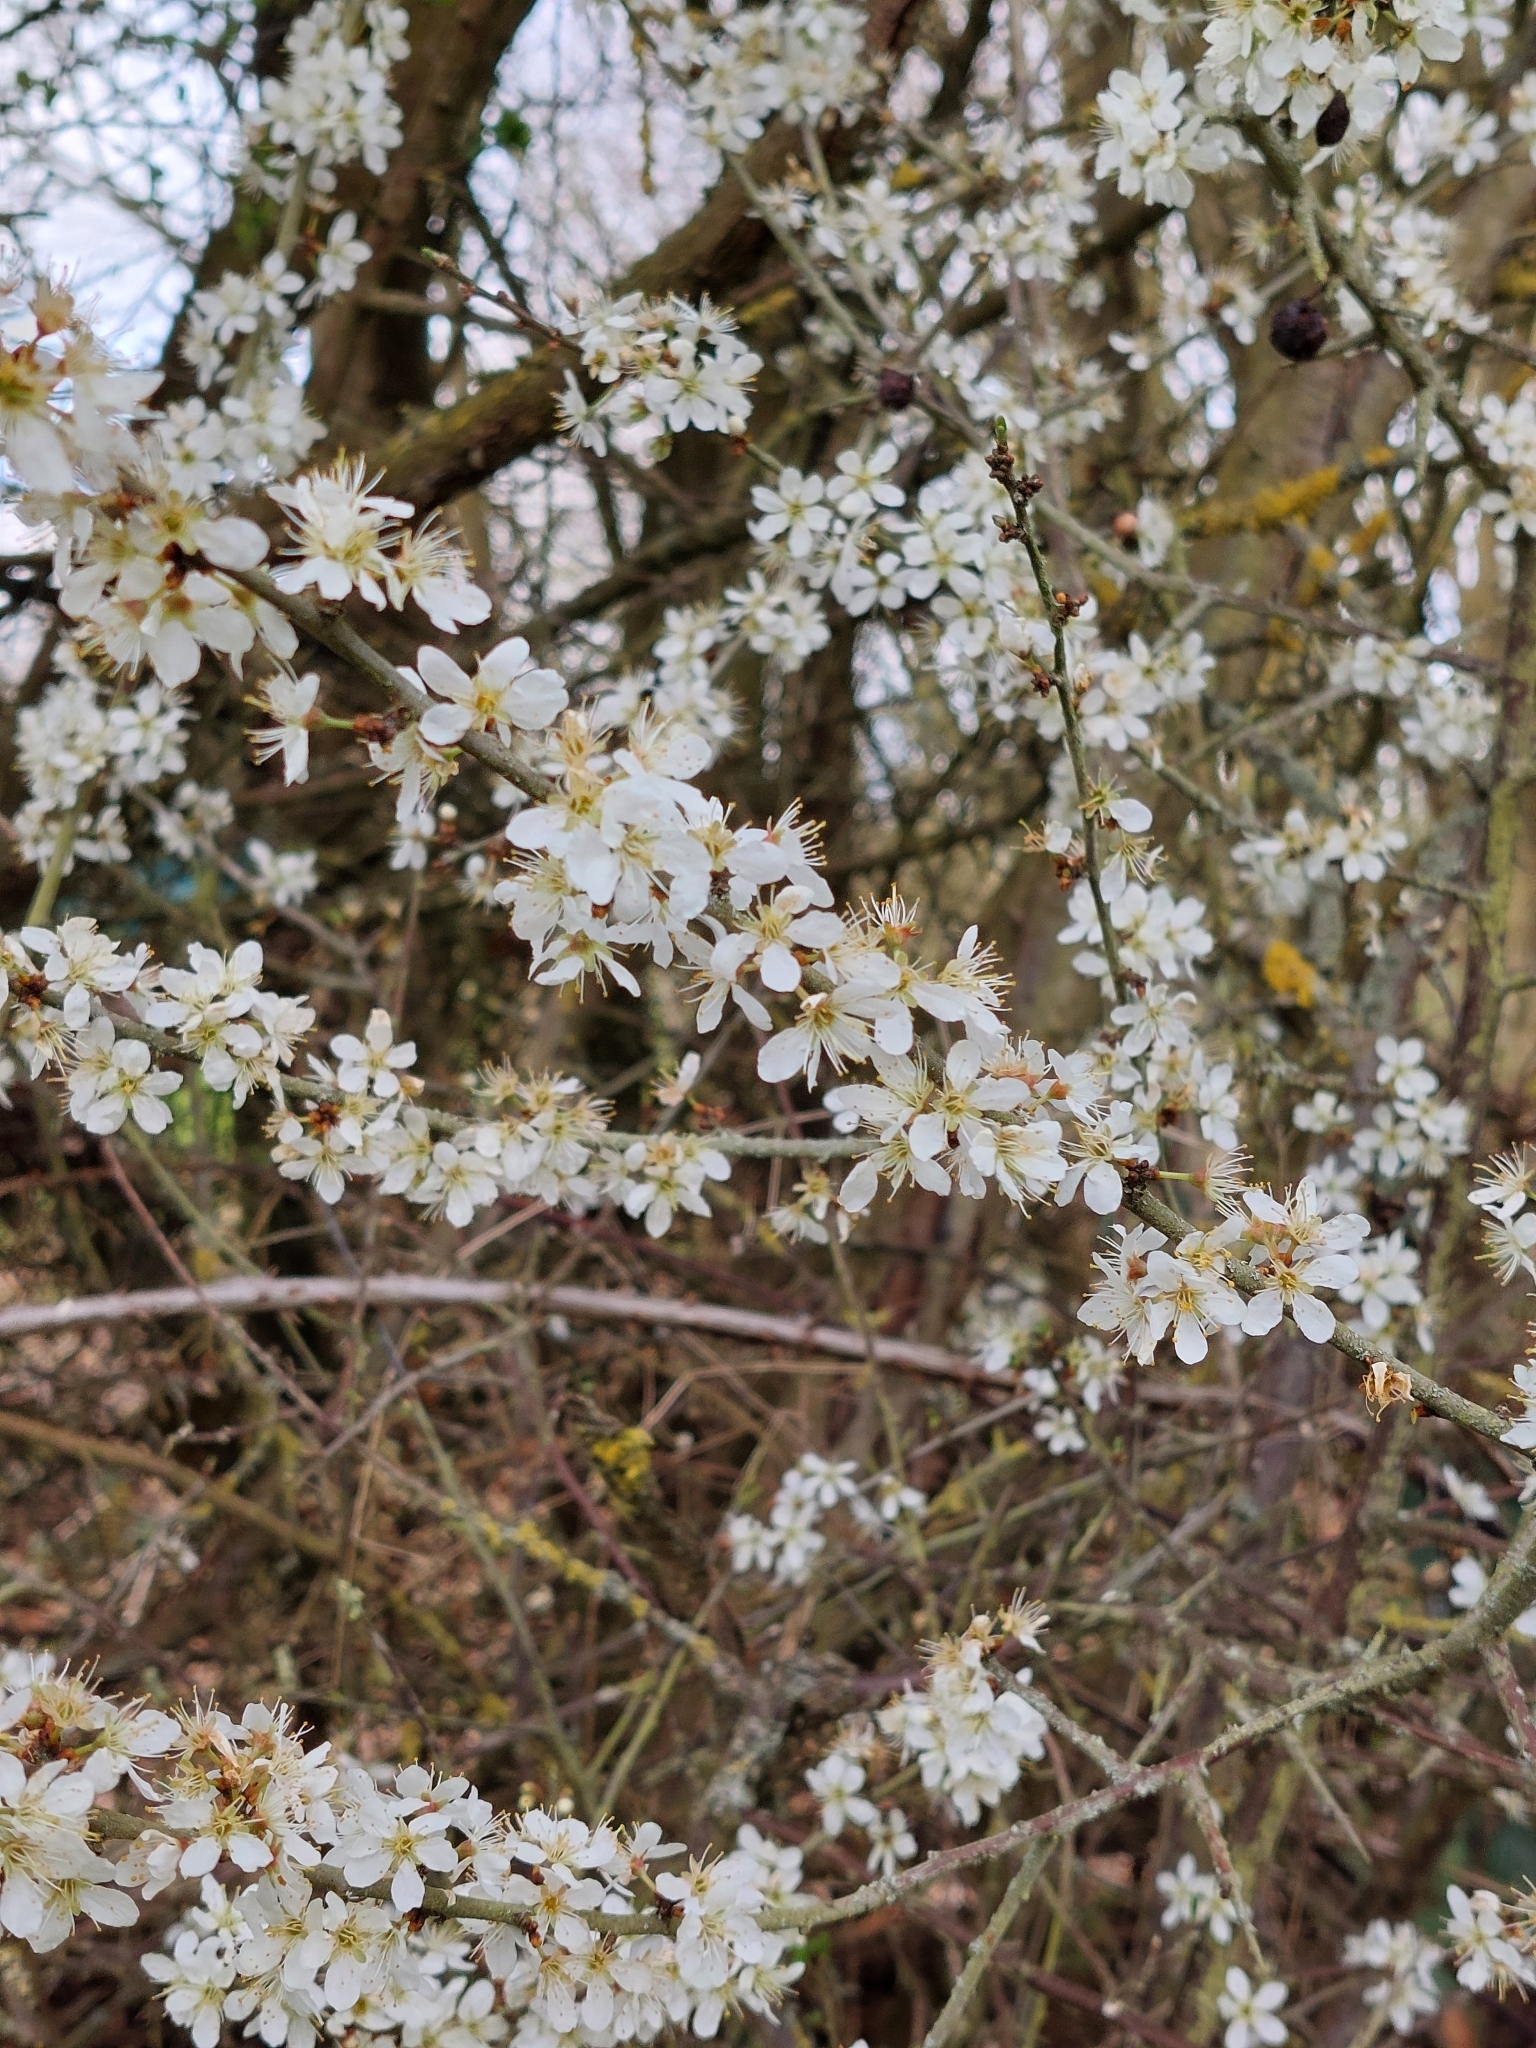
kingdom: Plantae
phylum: Tracheophyta
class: Magnoliopsida
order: Rosales
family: Rosaceae
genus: Prunus
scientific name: Prunus spinosa
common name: Blackthorn
